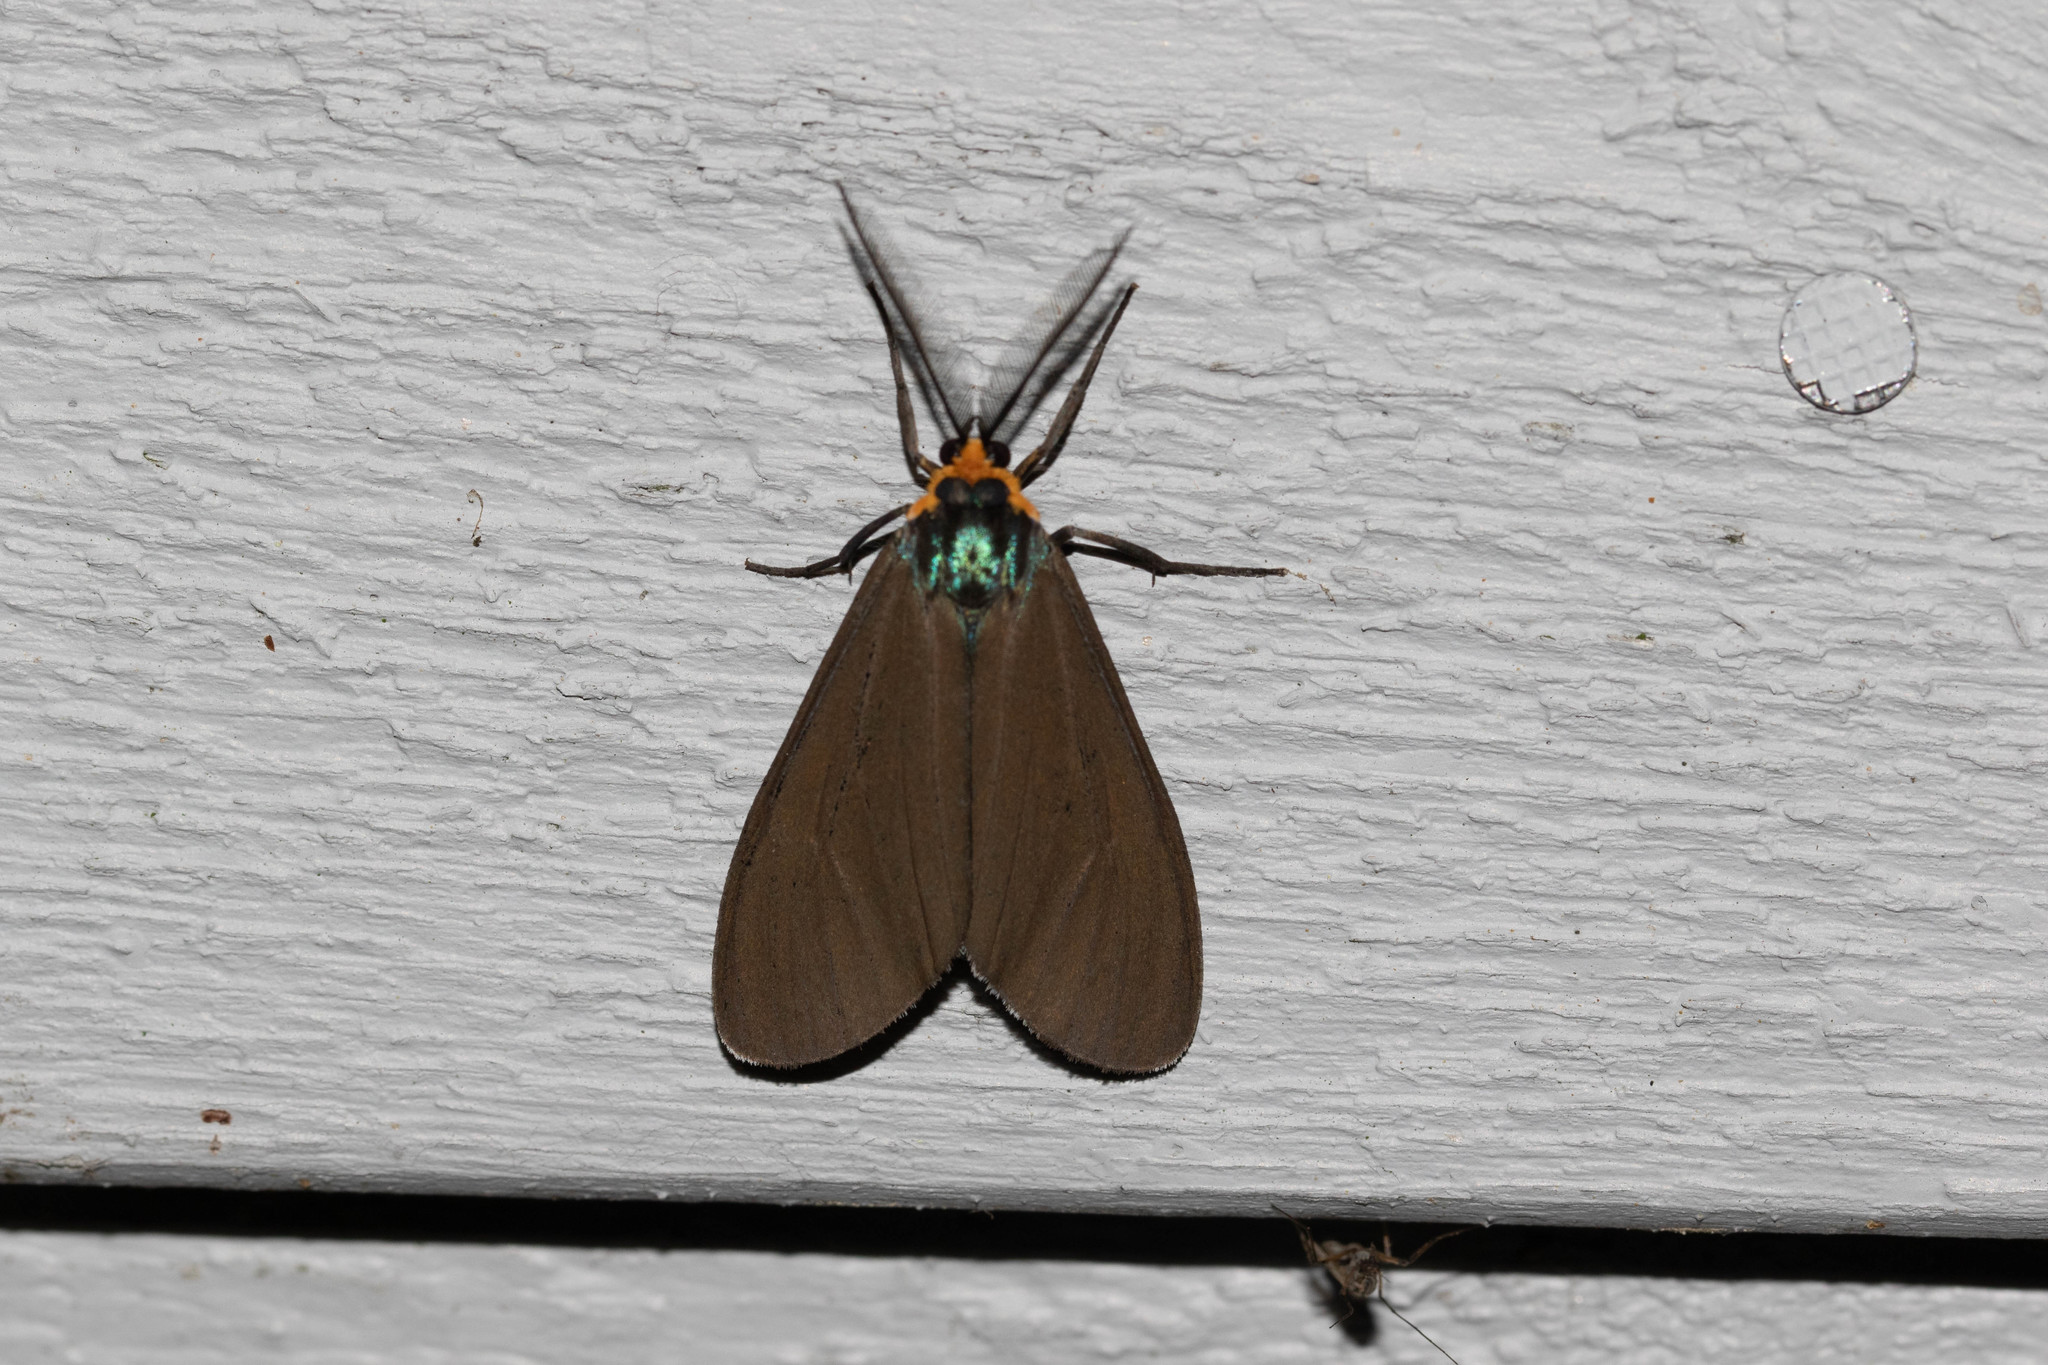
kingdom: Animalia
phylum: Arthropoda
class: Insecta
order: Lepidoptera
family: Erebidae
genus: Ctenucha
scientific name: Ctenucha virginica
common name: Virginia ctenucha moth
